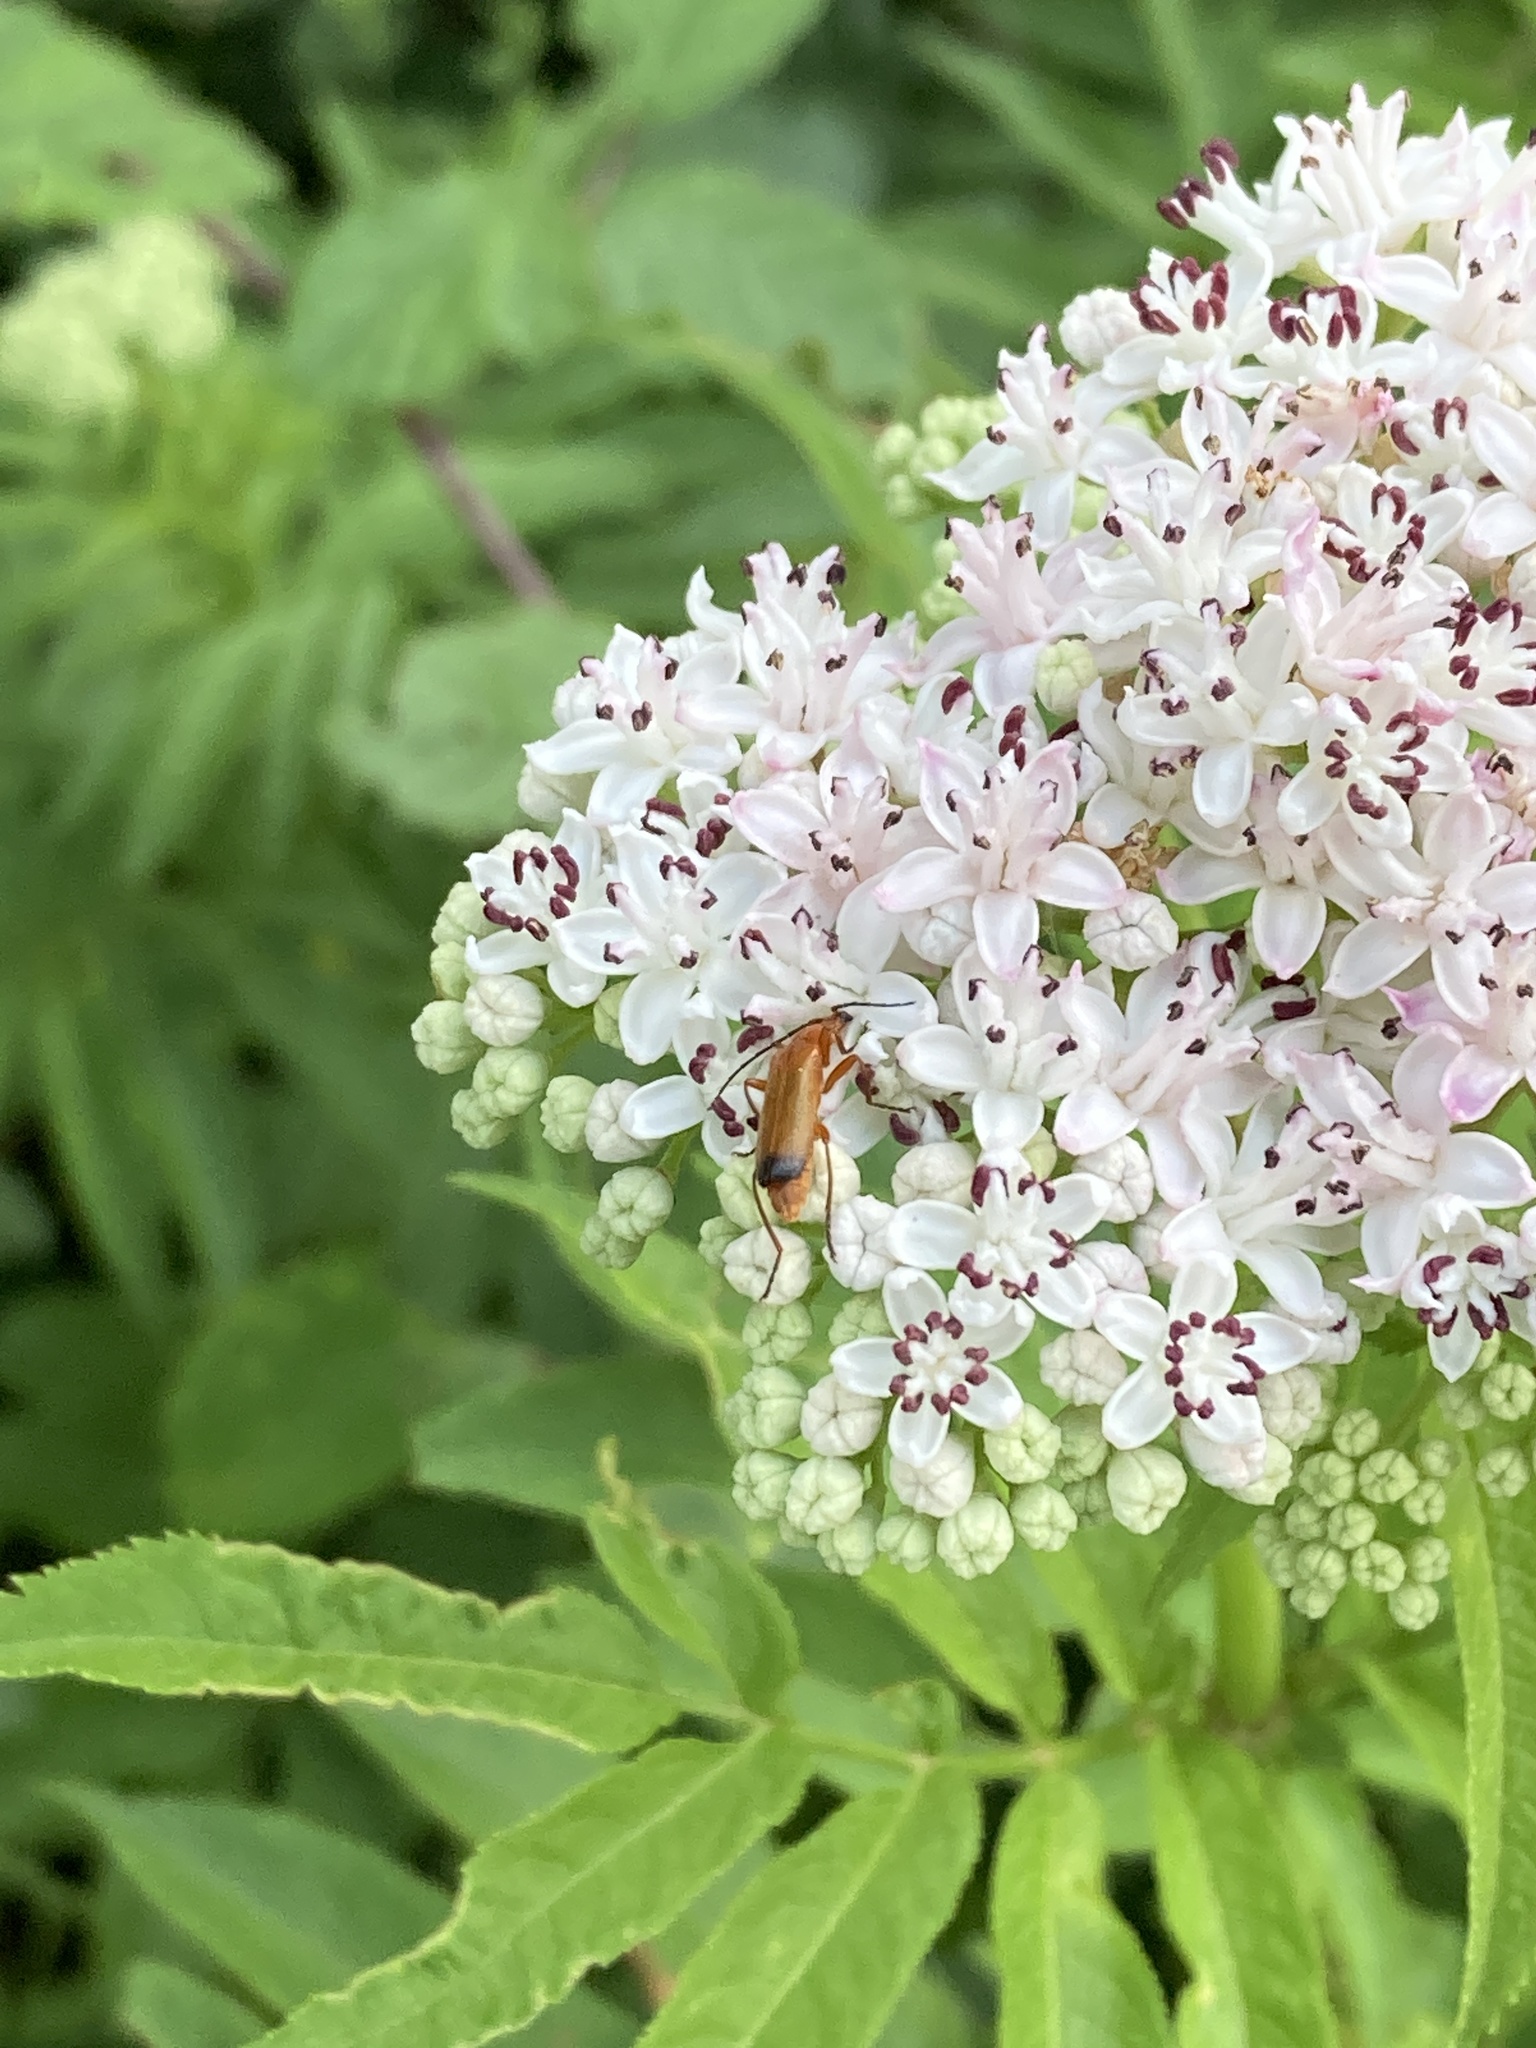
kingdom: Animalia
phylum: Arthropoda
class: Insecta
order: Coleoptera
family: Cantharidae
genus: Rhagonycha
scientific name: Rhagonycha fulva
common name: Common red soldier beetle
